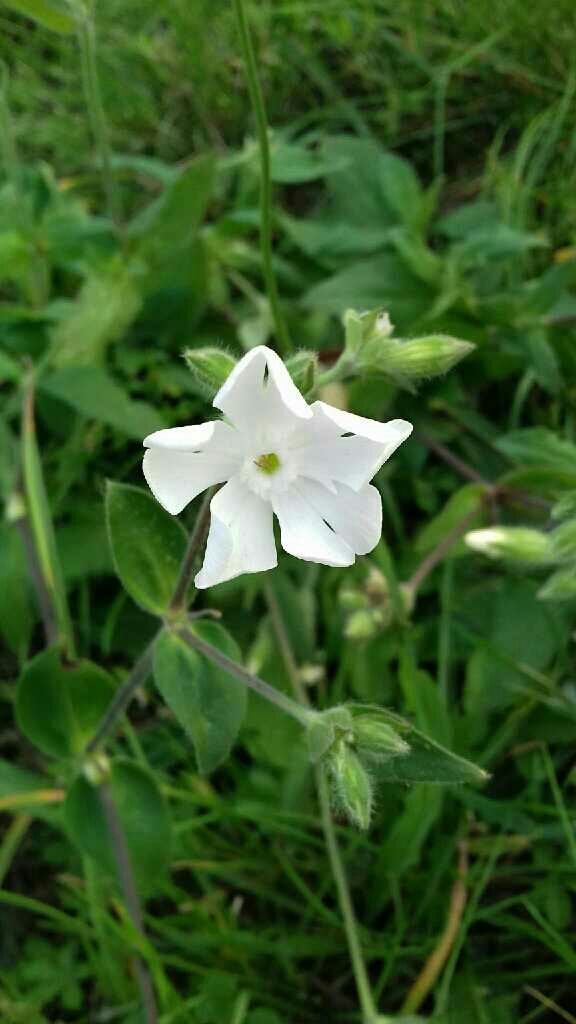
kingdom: Plantae
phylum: Tracheophyta
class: Magnoliopsida
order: Caryophyllales
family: Caryophyllaceae
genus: Silene
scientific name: Silene latifolia
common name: White campion
